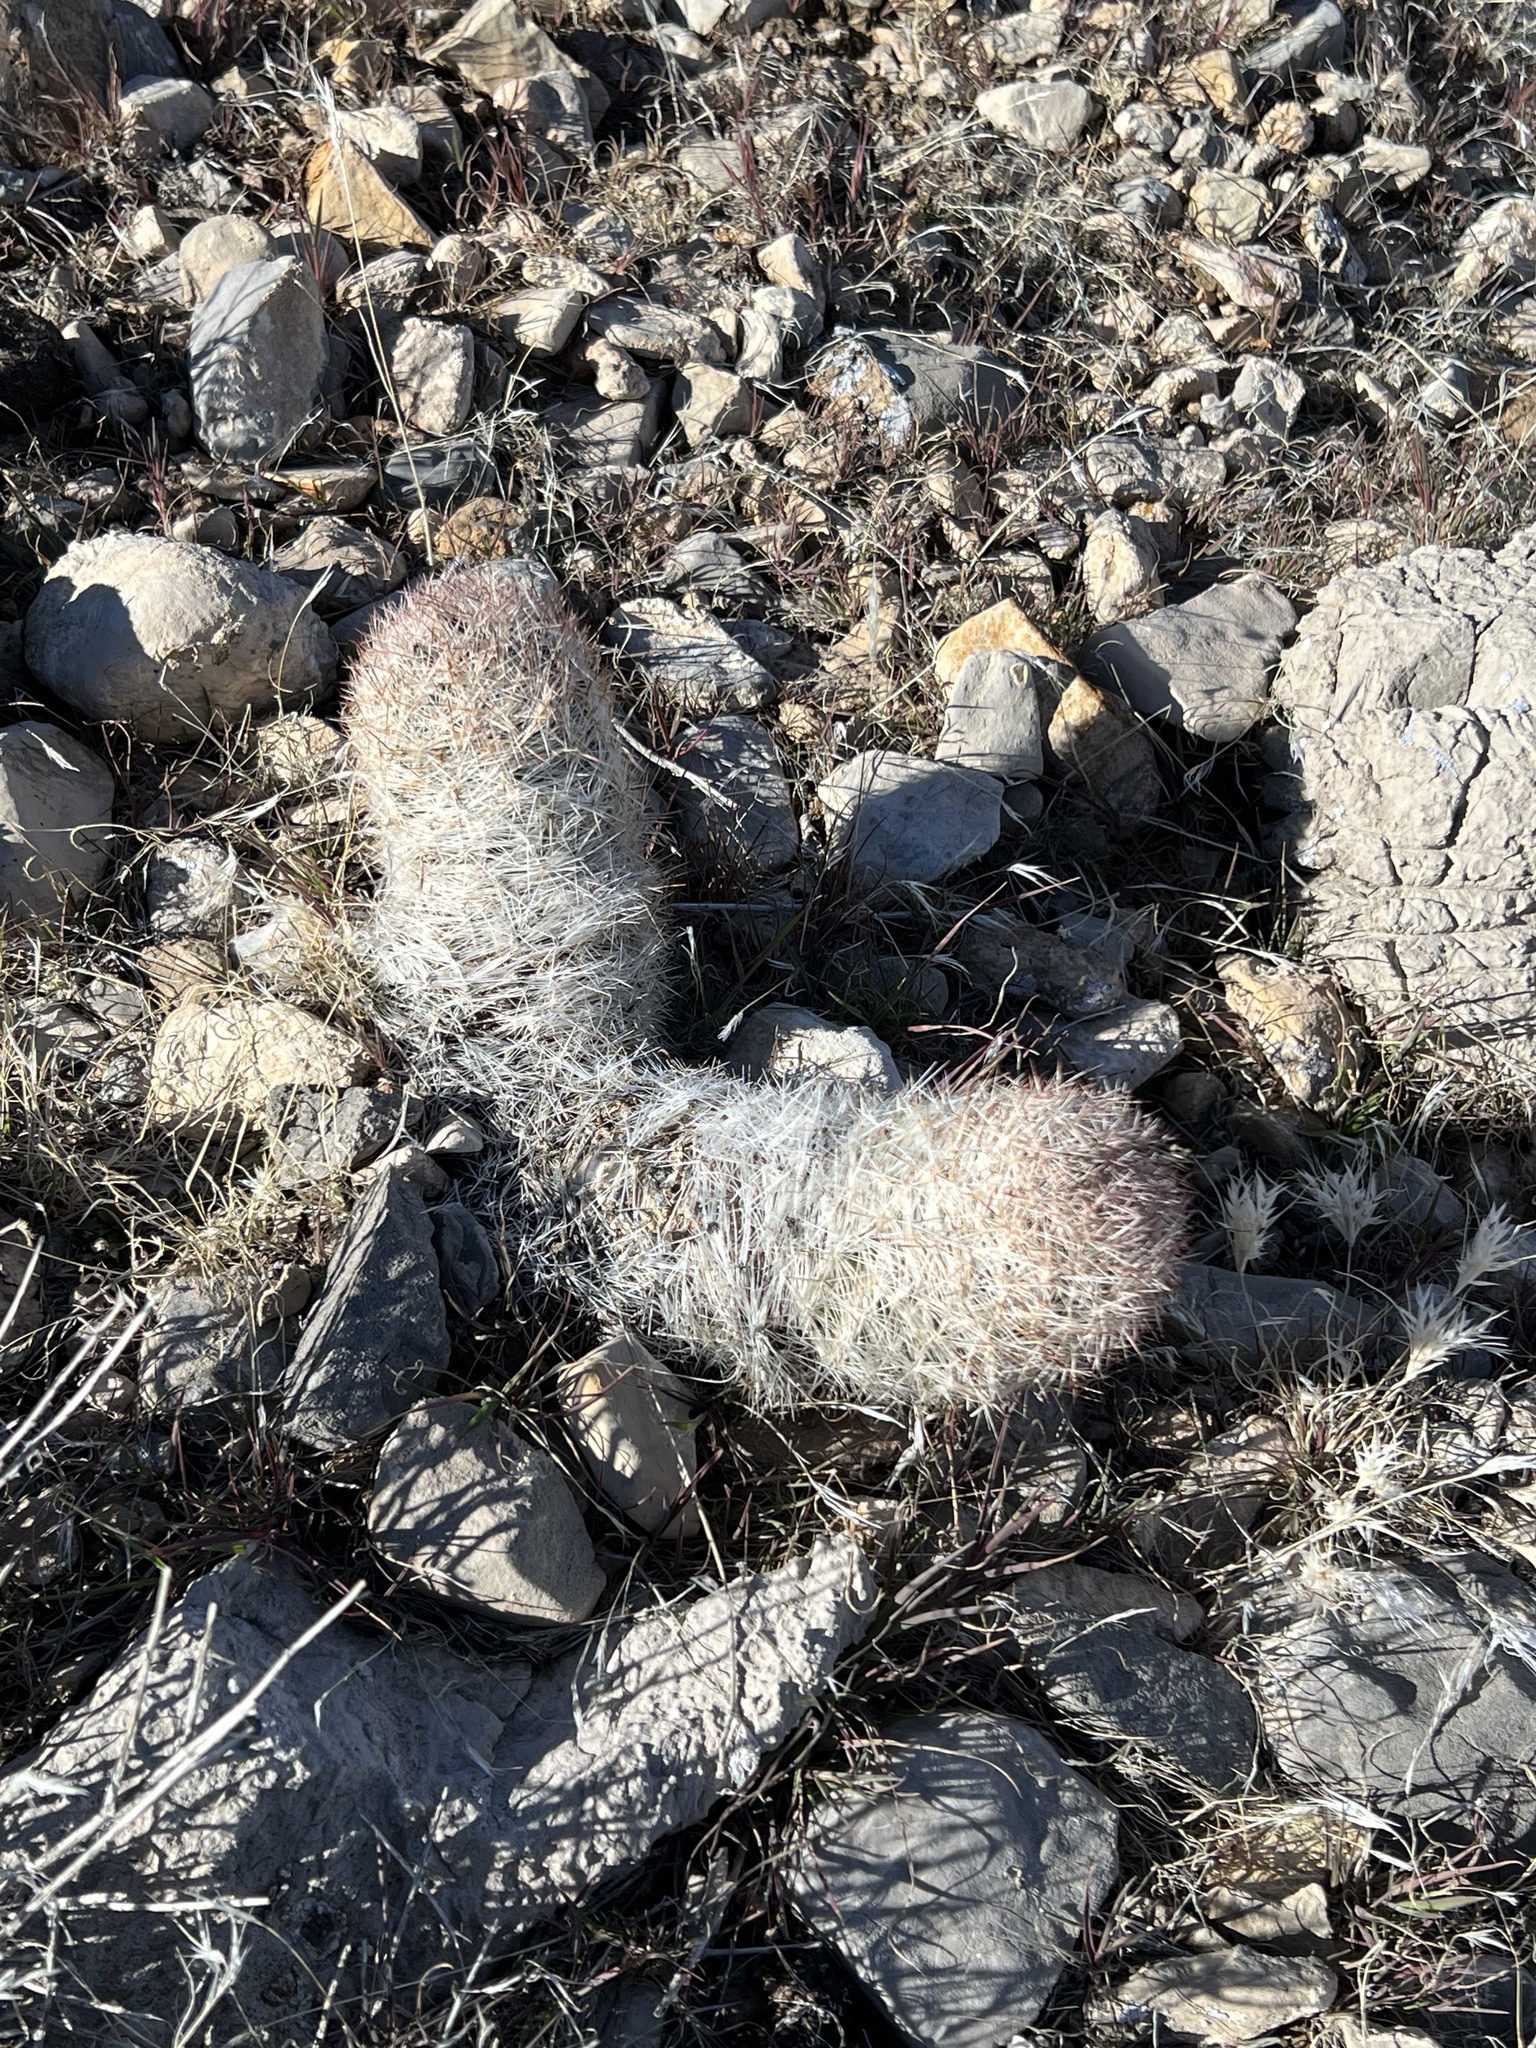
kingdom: Plantae
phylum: Tracheophyta
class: Magnoliopsida
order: Caryophyllales
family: Cactaceae
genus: Pelecyphora
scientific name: Pelecyphora dasyacantha
